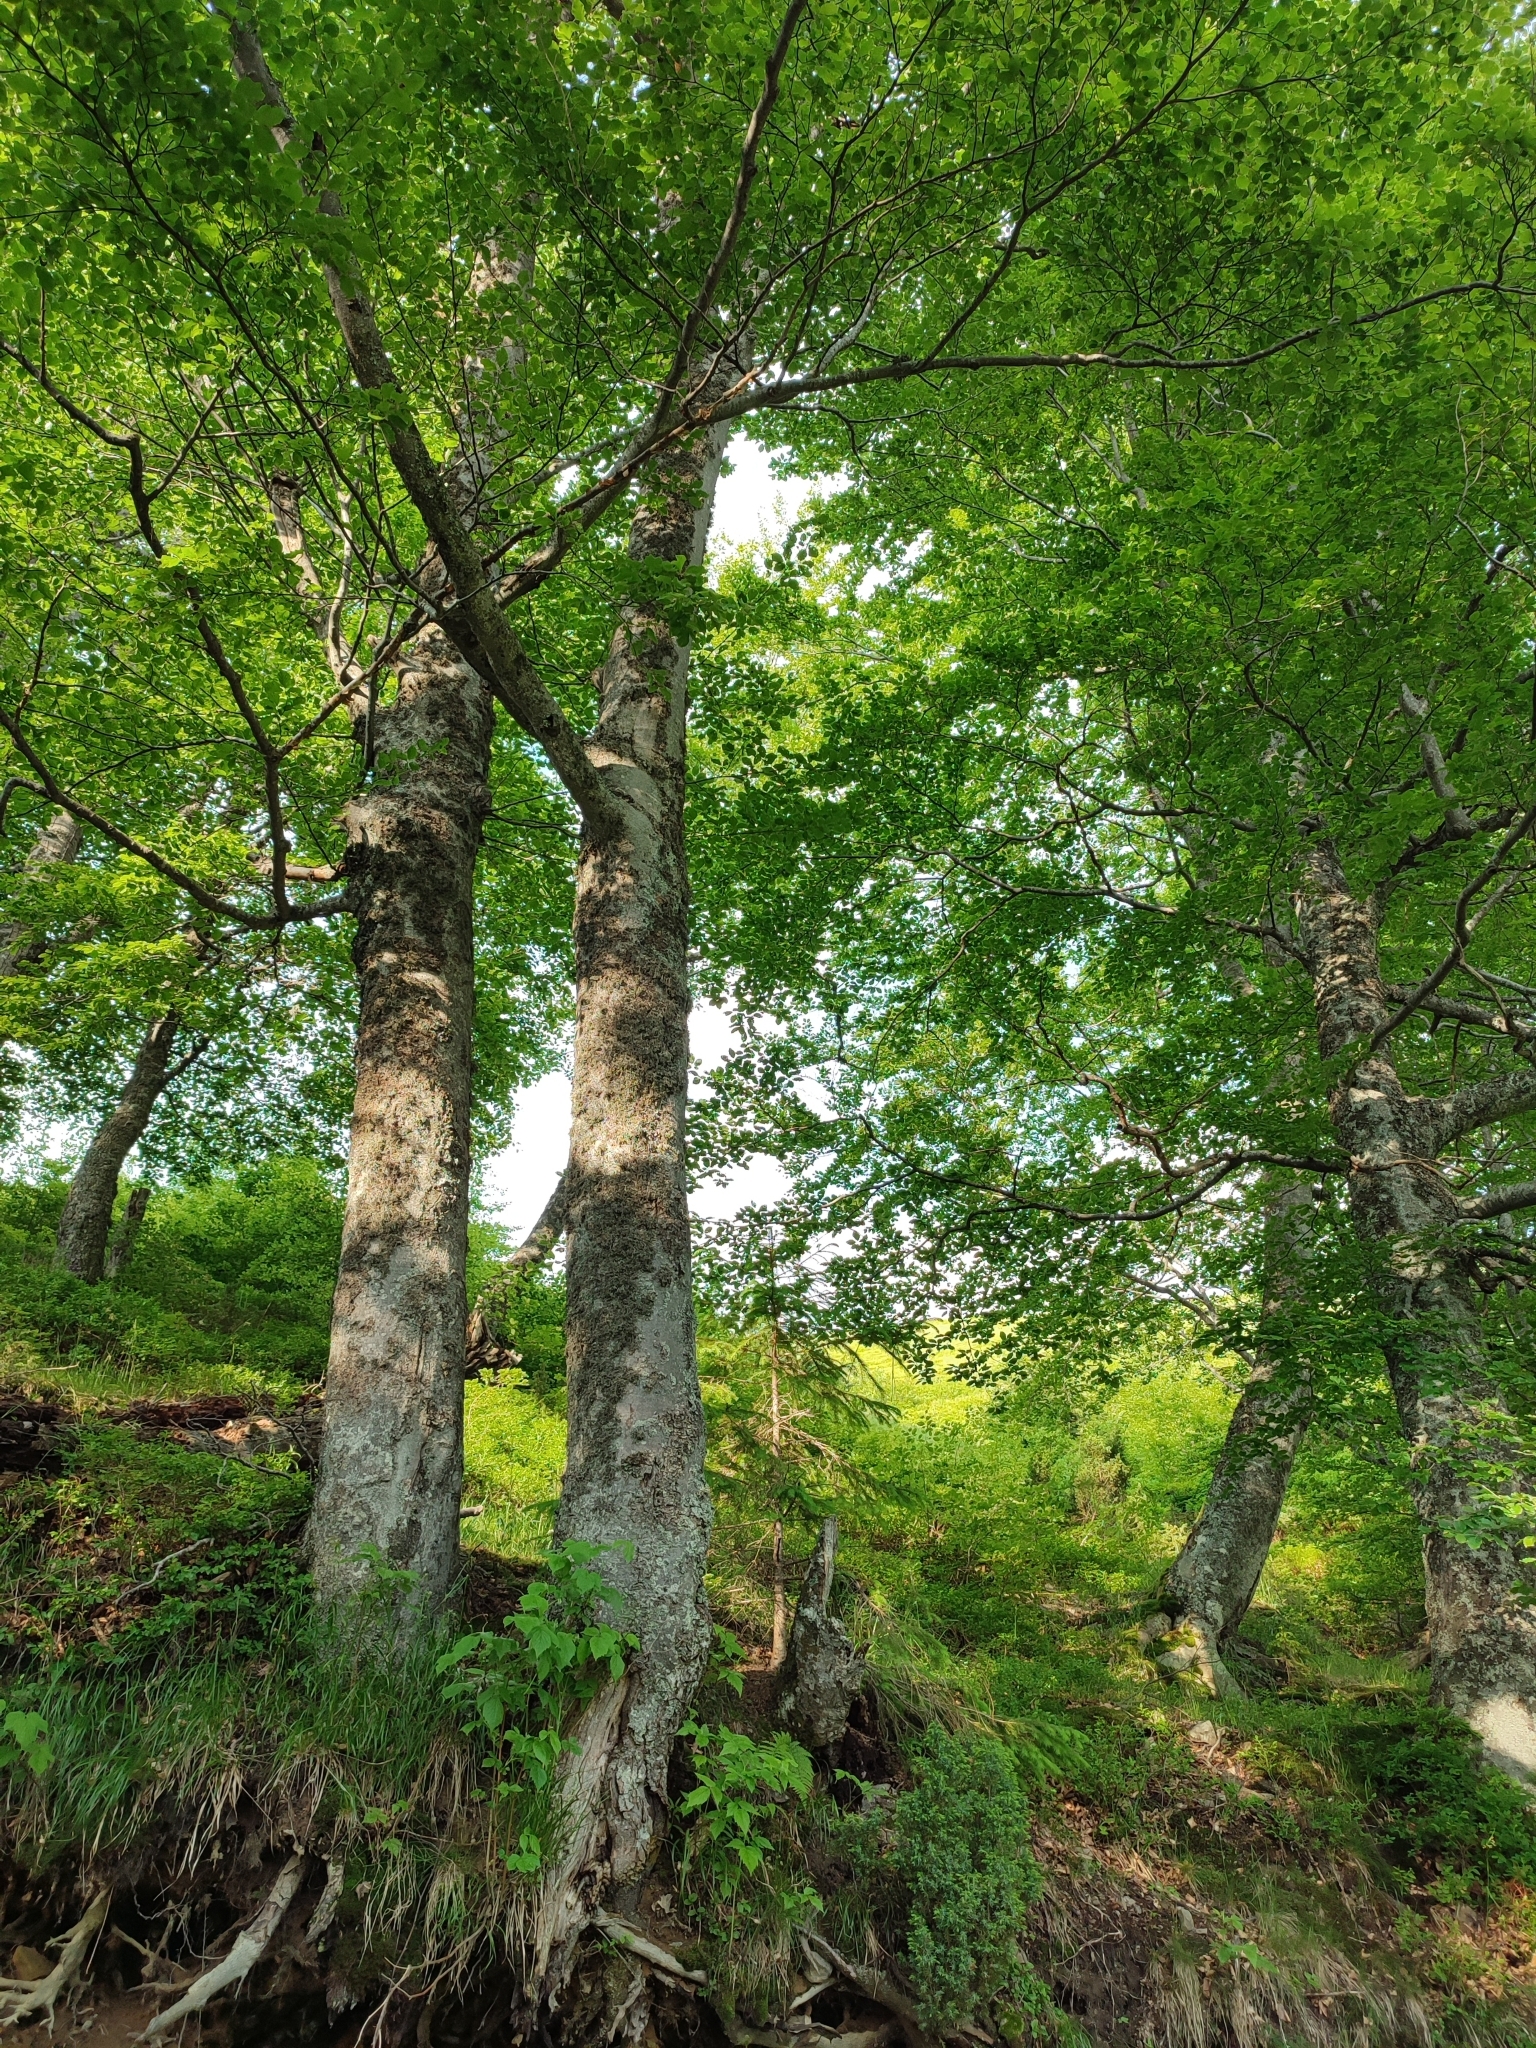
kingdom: Plantae
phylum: Tracheophyta
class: Magnoliopsida
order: Fagales
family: Fagaceae
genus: Fagus
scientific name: Fagus sylvatica
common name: Beech
